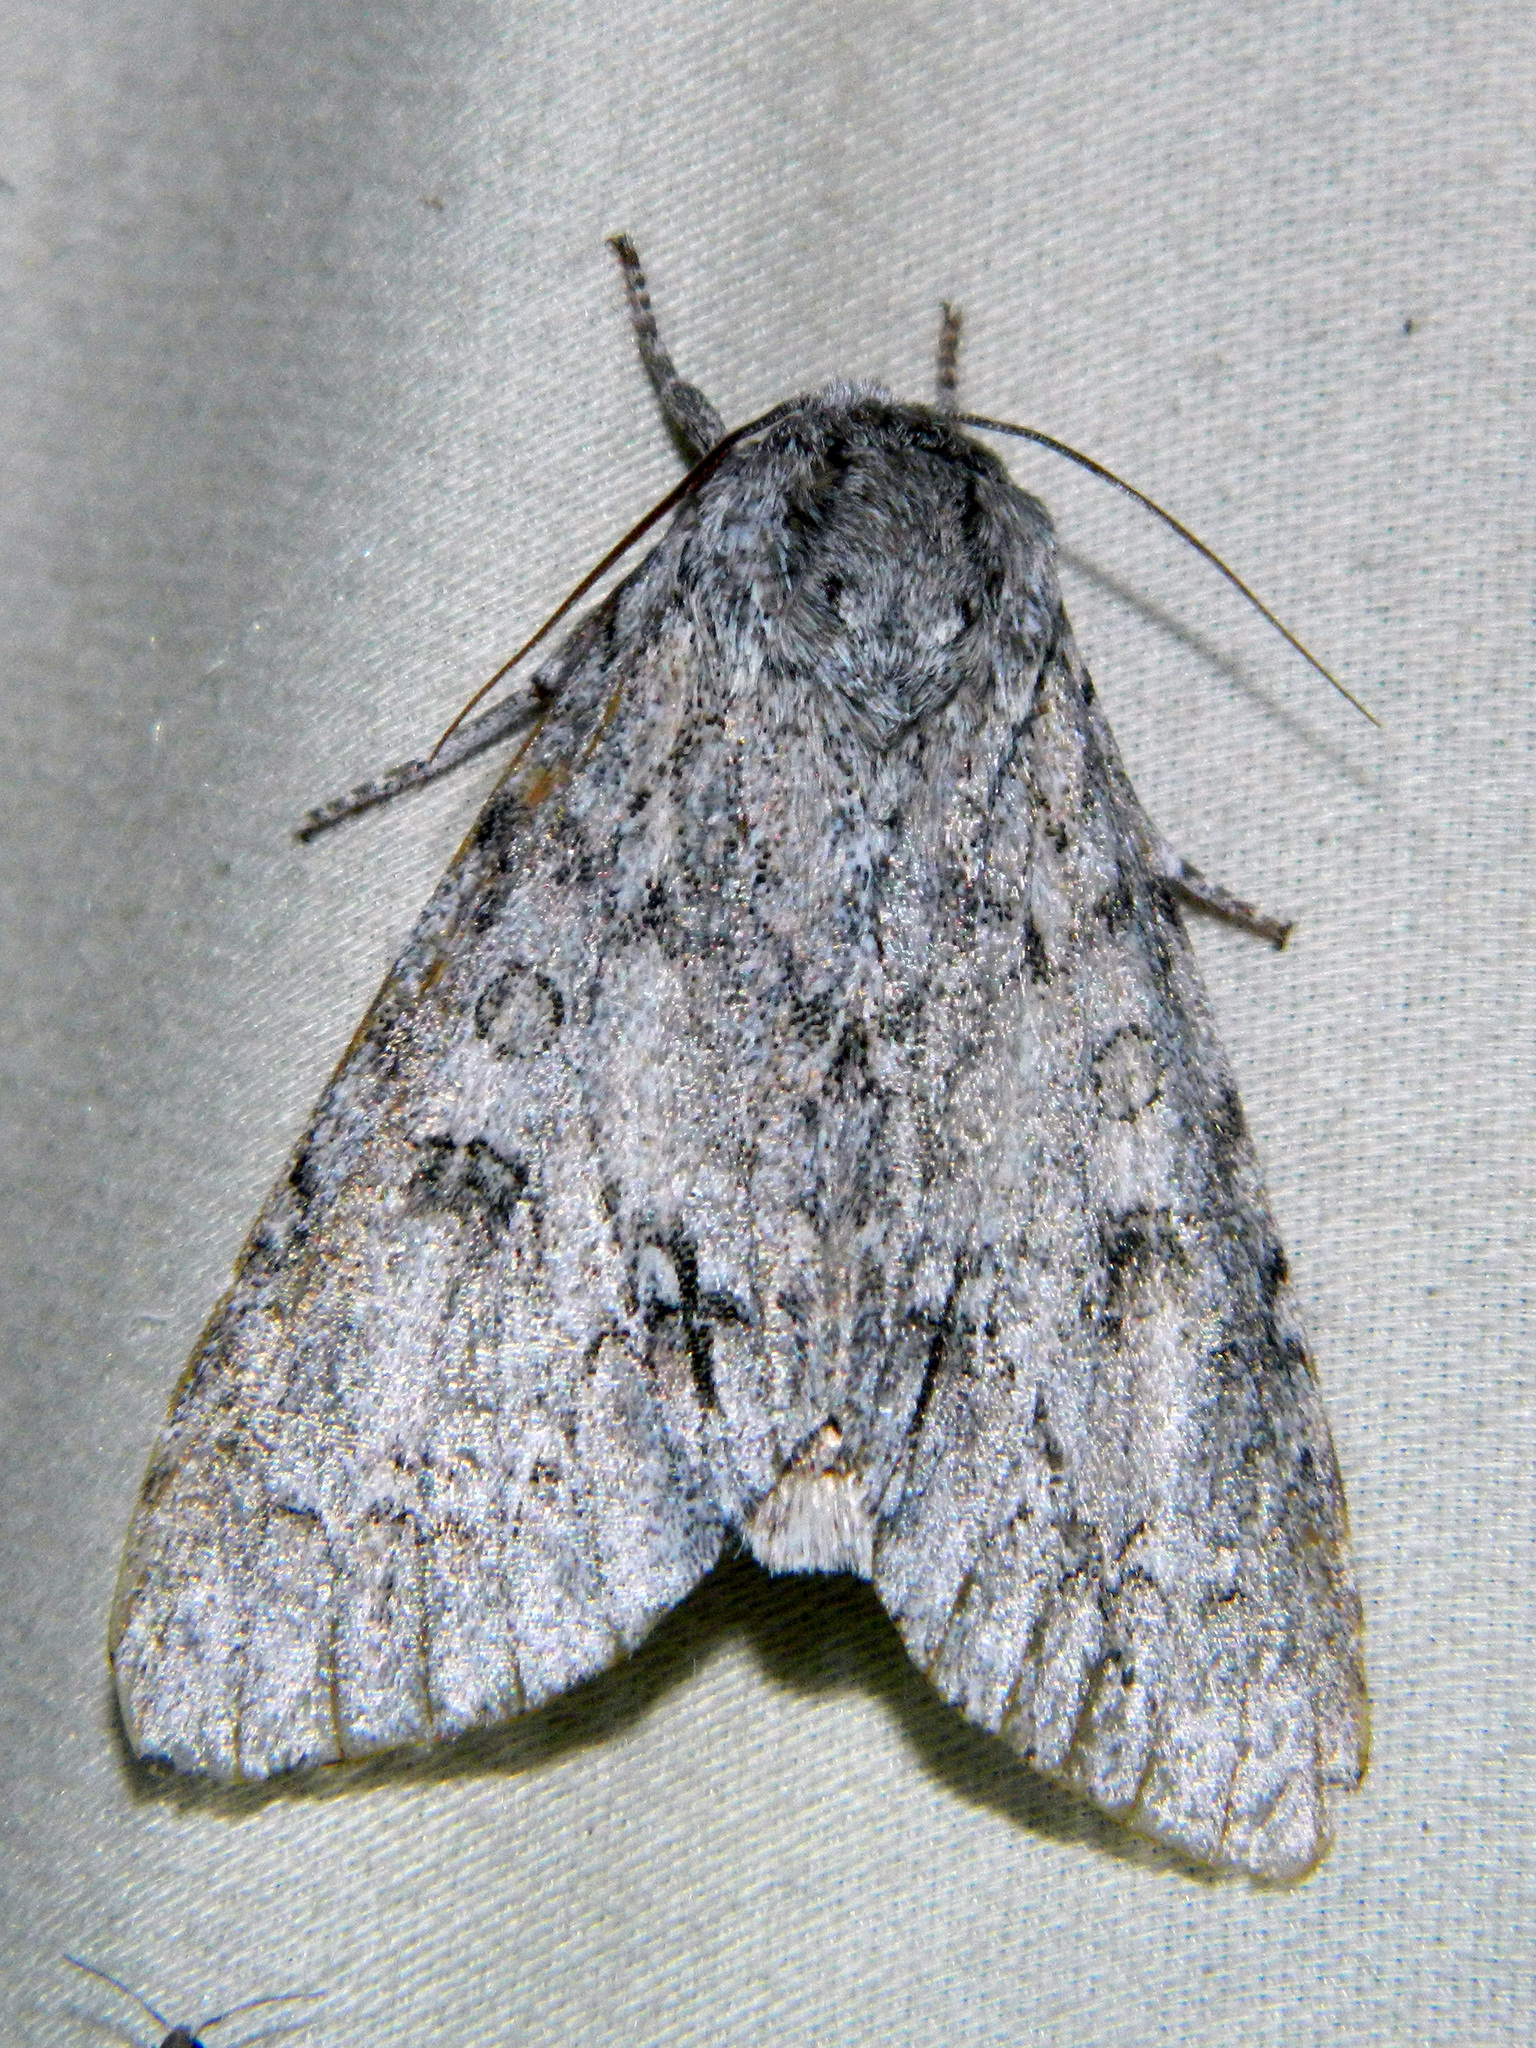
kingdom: Animalia
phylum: Arthropoda
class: Insecta
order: Lepidoptera
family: Noctuidae
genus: Acronicta
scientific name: Acronicta insita
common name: Large gray dagger
